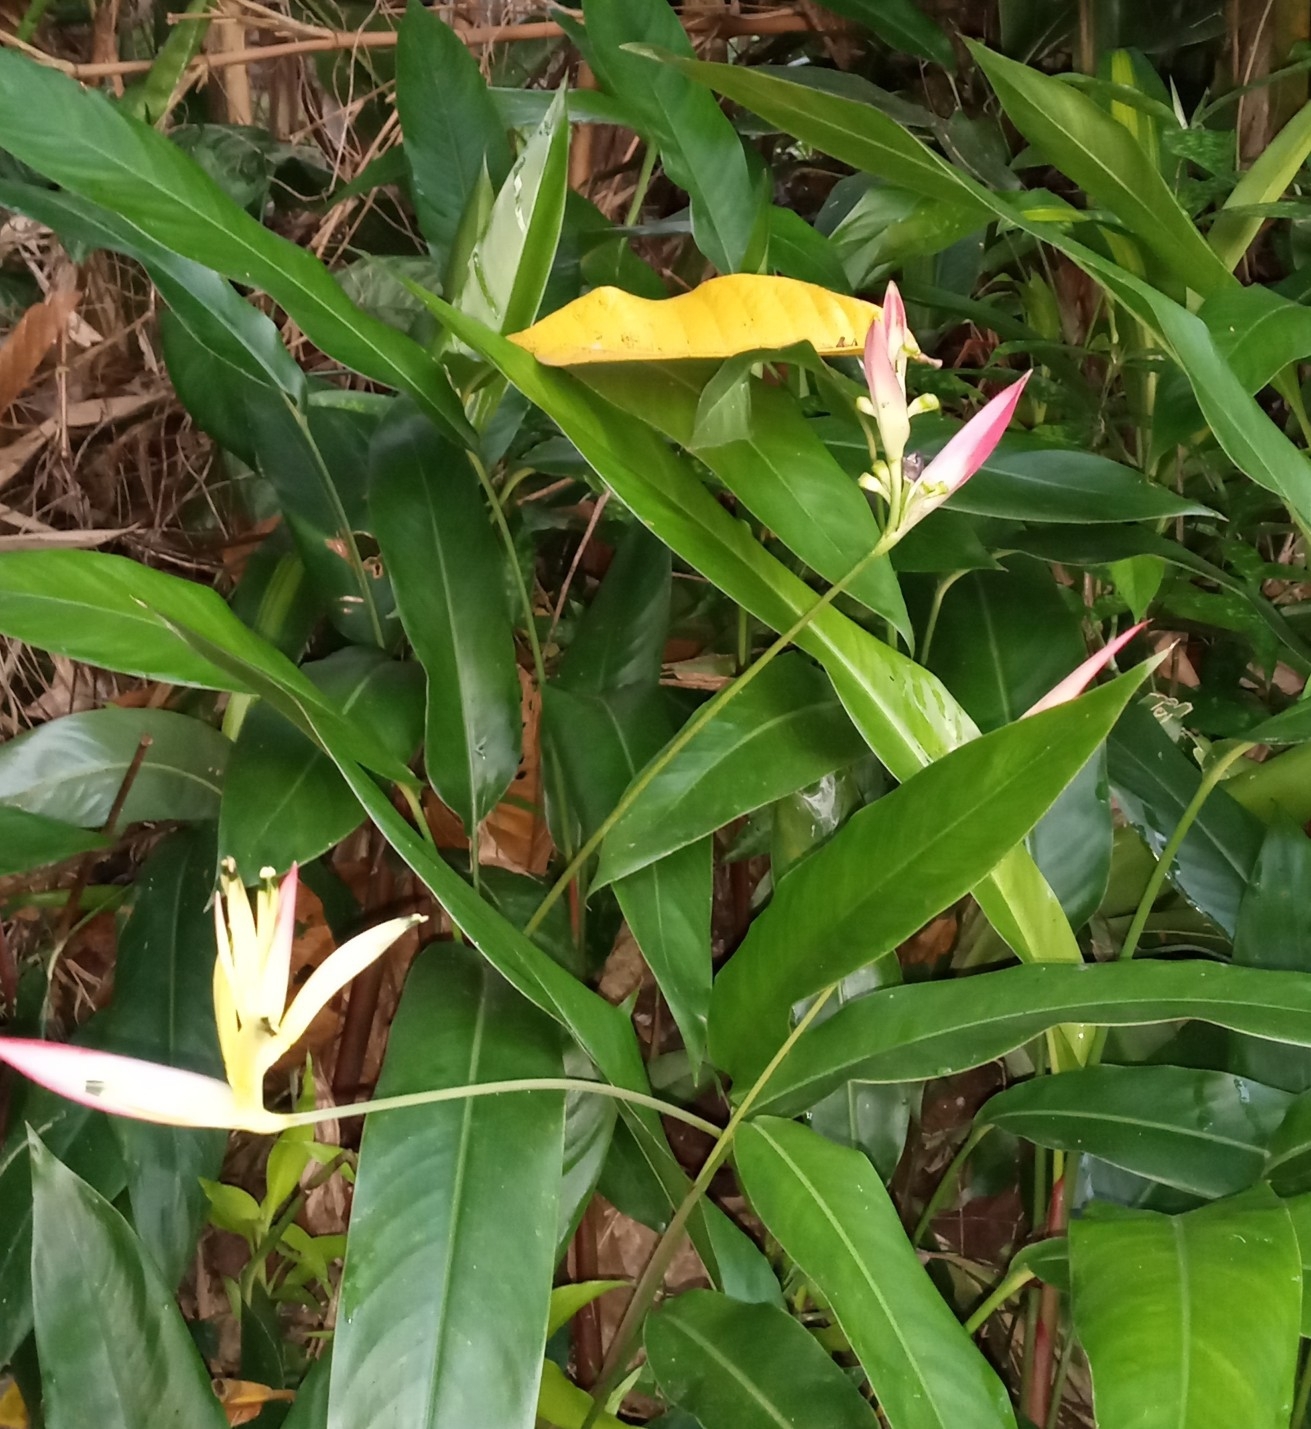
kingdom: Plantae
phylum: Tracheophyta
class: Liliopsida
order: Zingiberales
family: Heliconiaceae
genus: Heliconia
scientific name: Heliconia psittacorum
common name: Parrot's-flower
